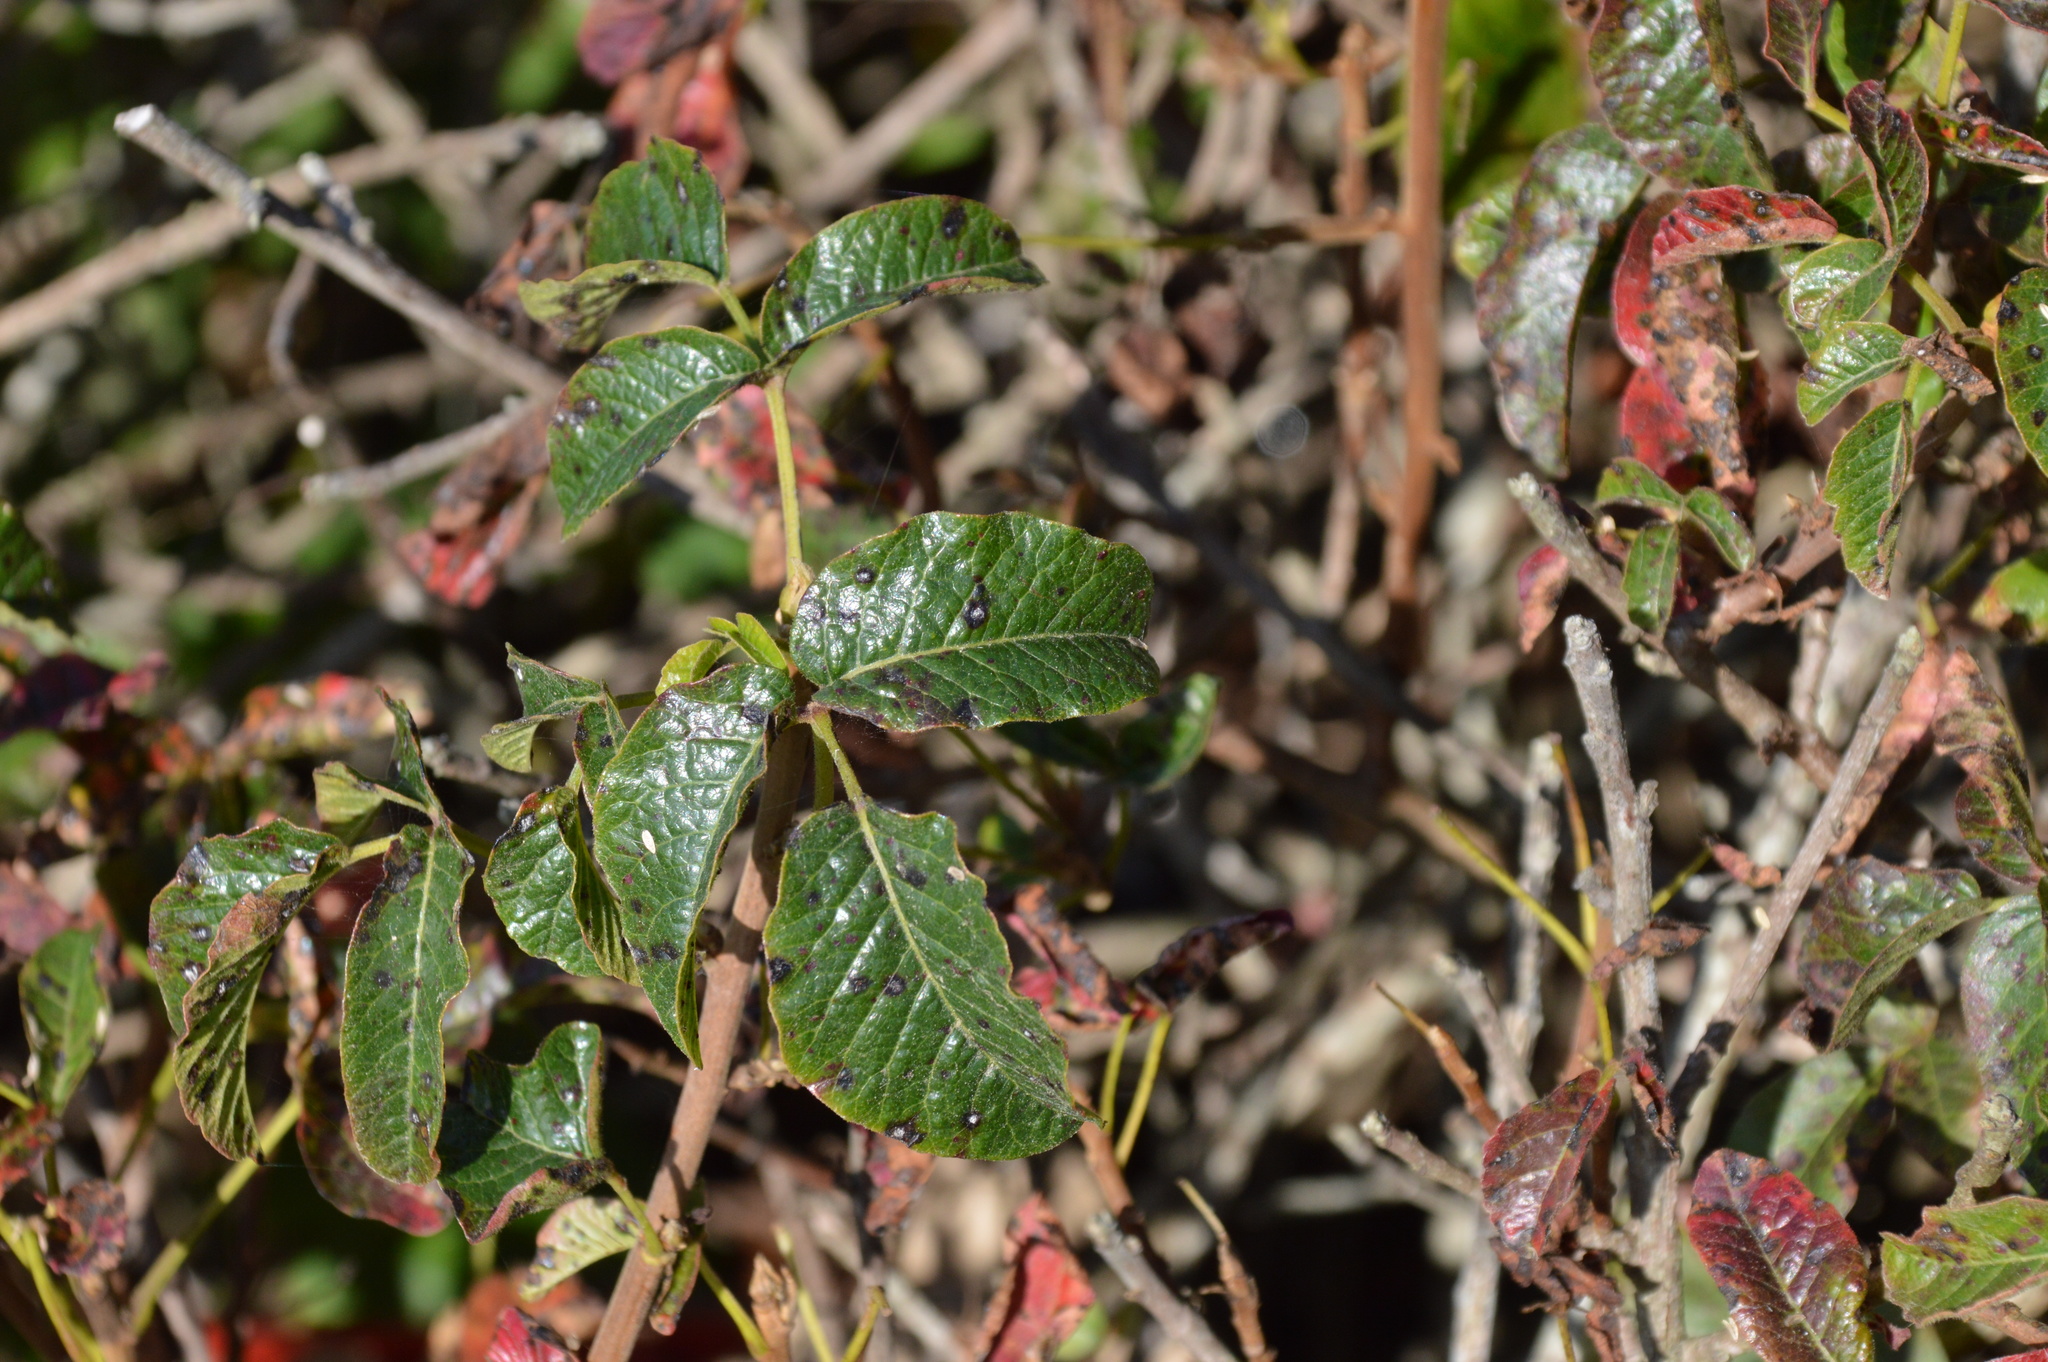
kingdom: Plantae
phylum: Tracheophyta
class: Magnoliopsida
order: Sapindales
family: Anacardiaceae
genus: Toxicodendron
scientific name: Toxicodendron diversilobum
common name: Pacific poison-oak
